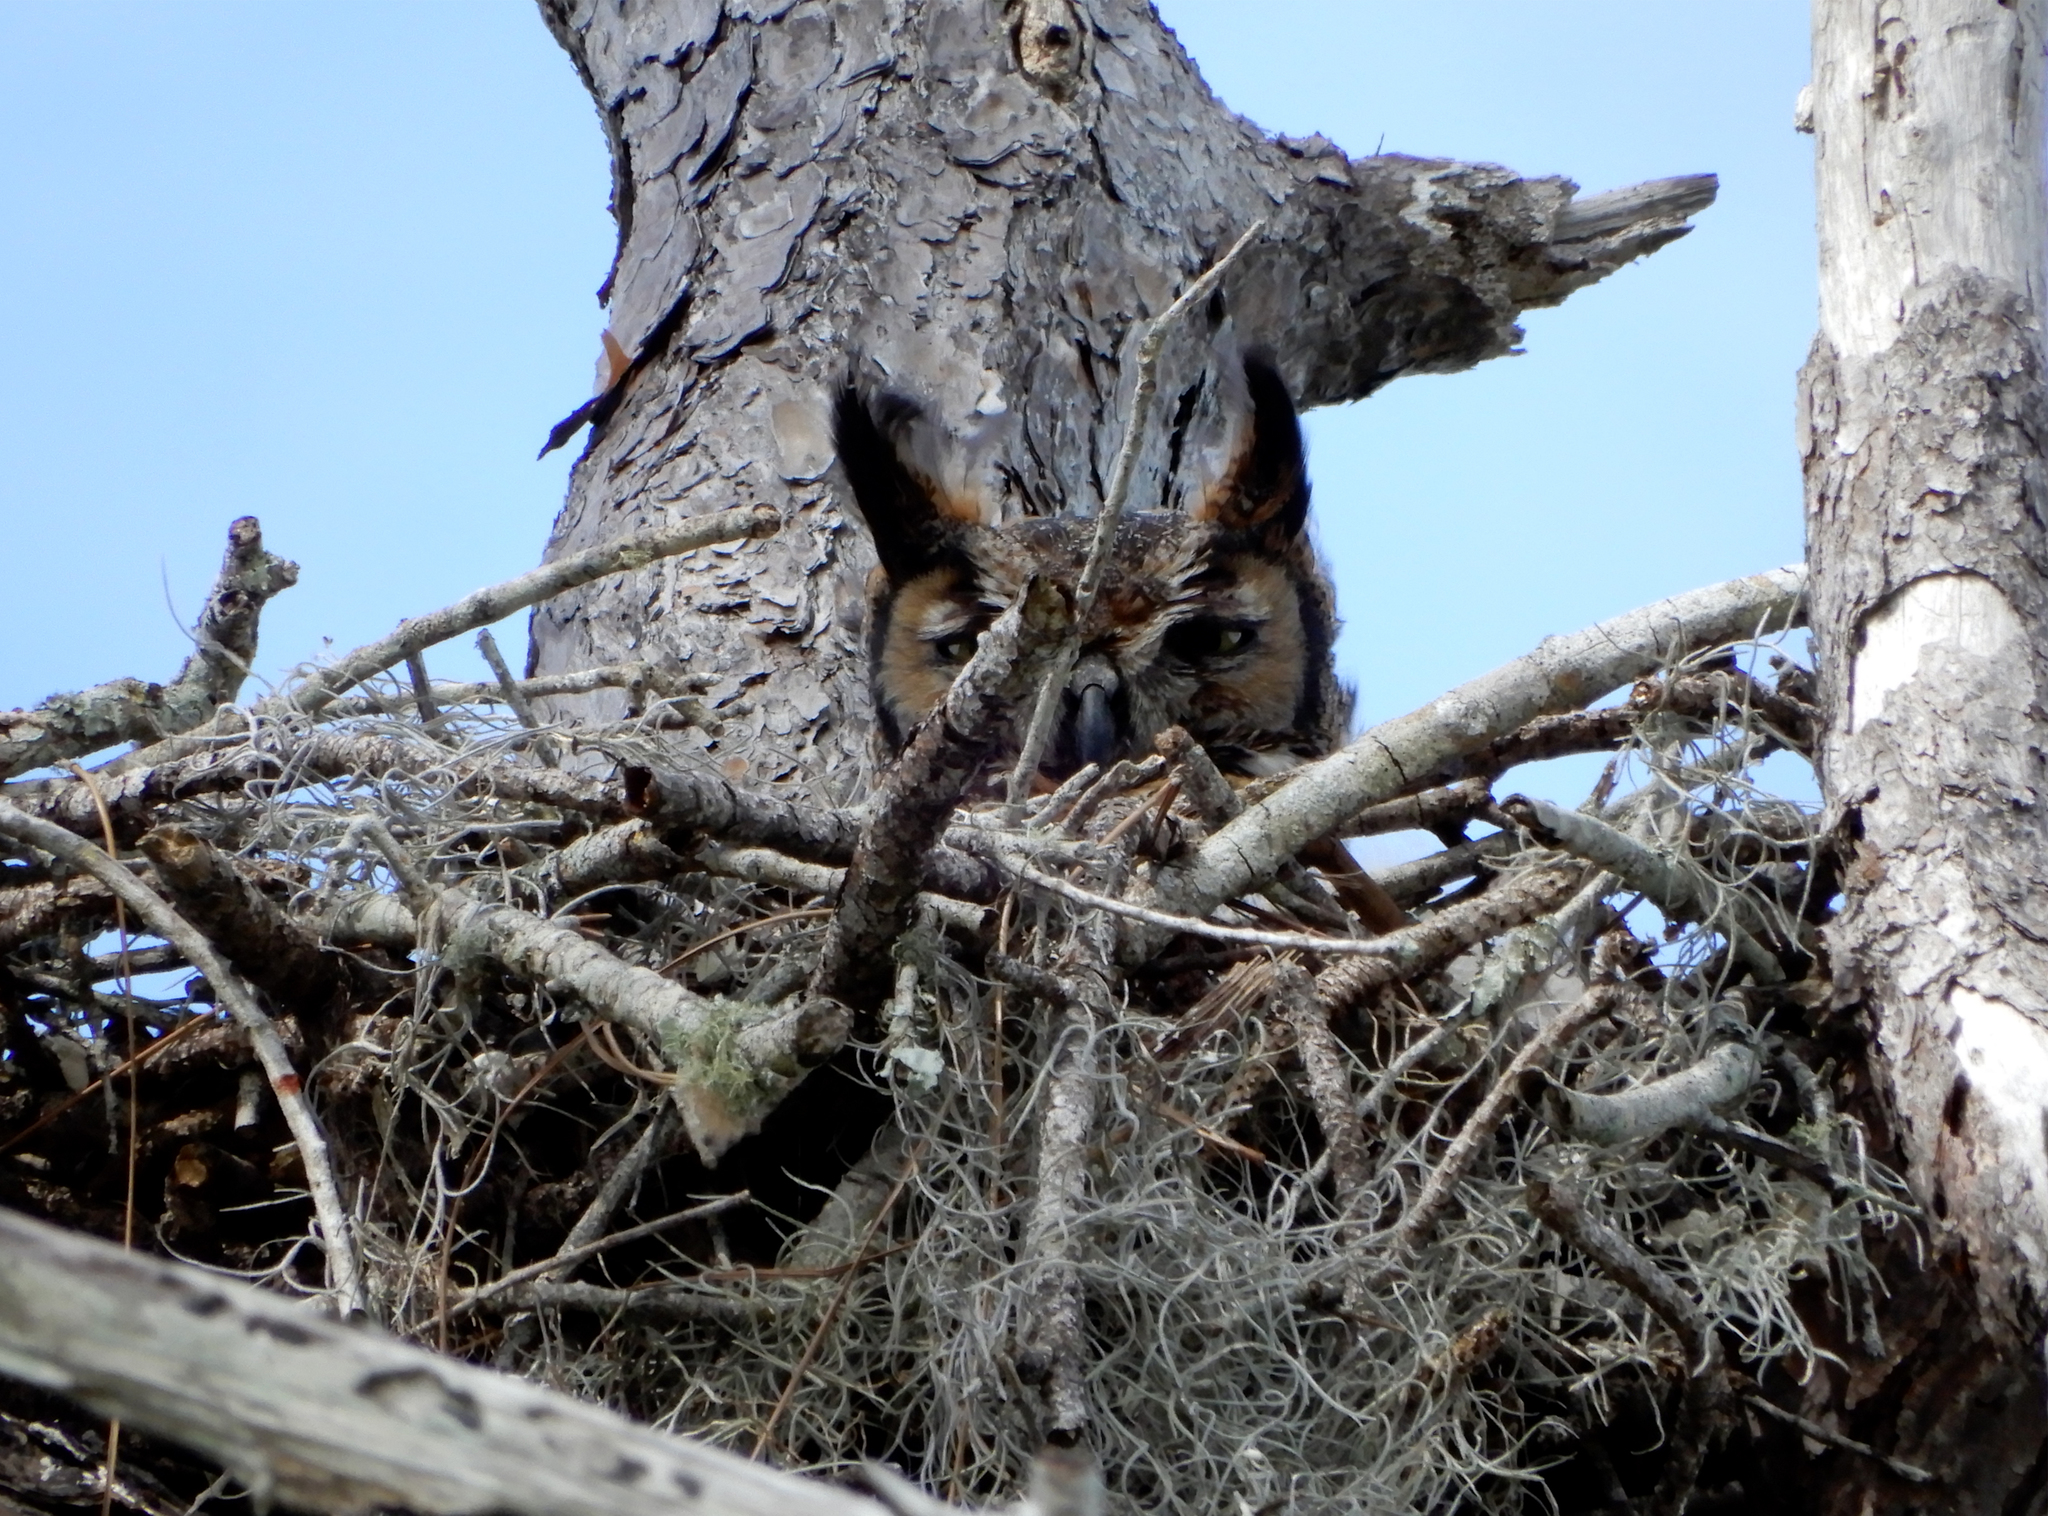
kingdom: Animalia
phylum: Chordata
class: Aves
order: Strigiformes
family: Strigidae
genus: Bubo
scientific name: Bubo virginianus
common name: Great horned owl
